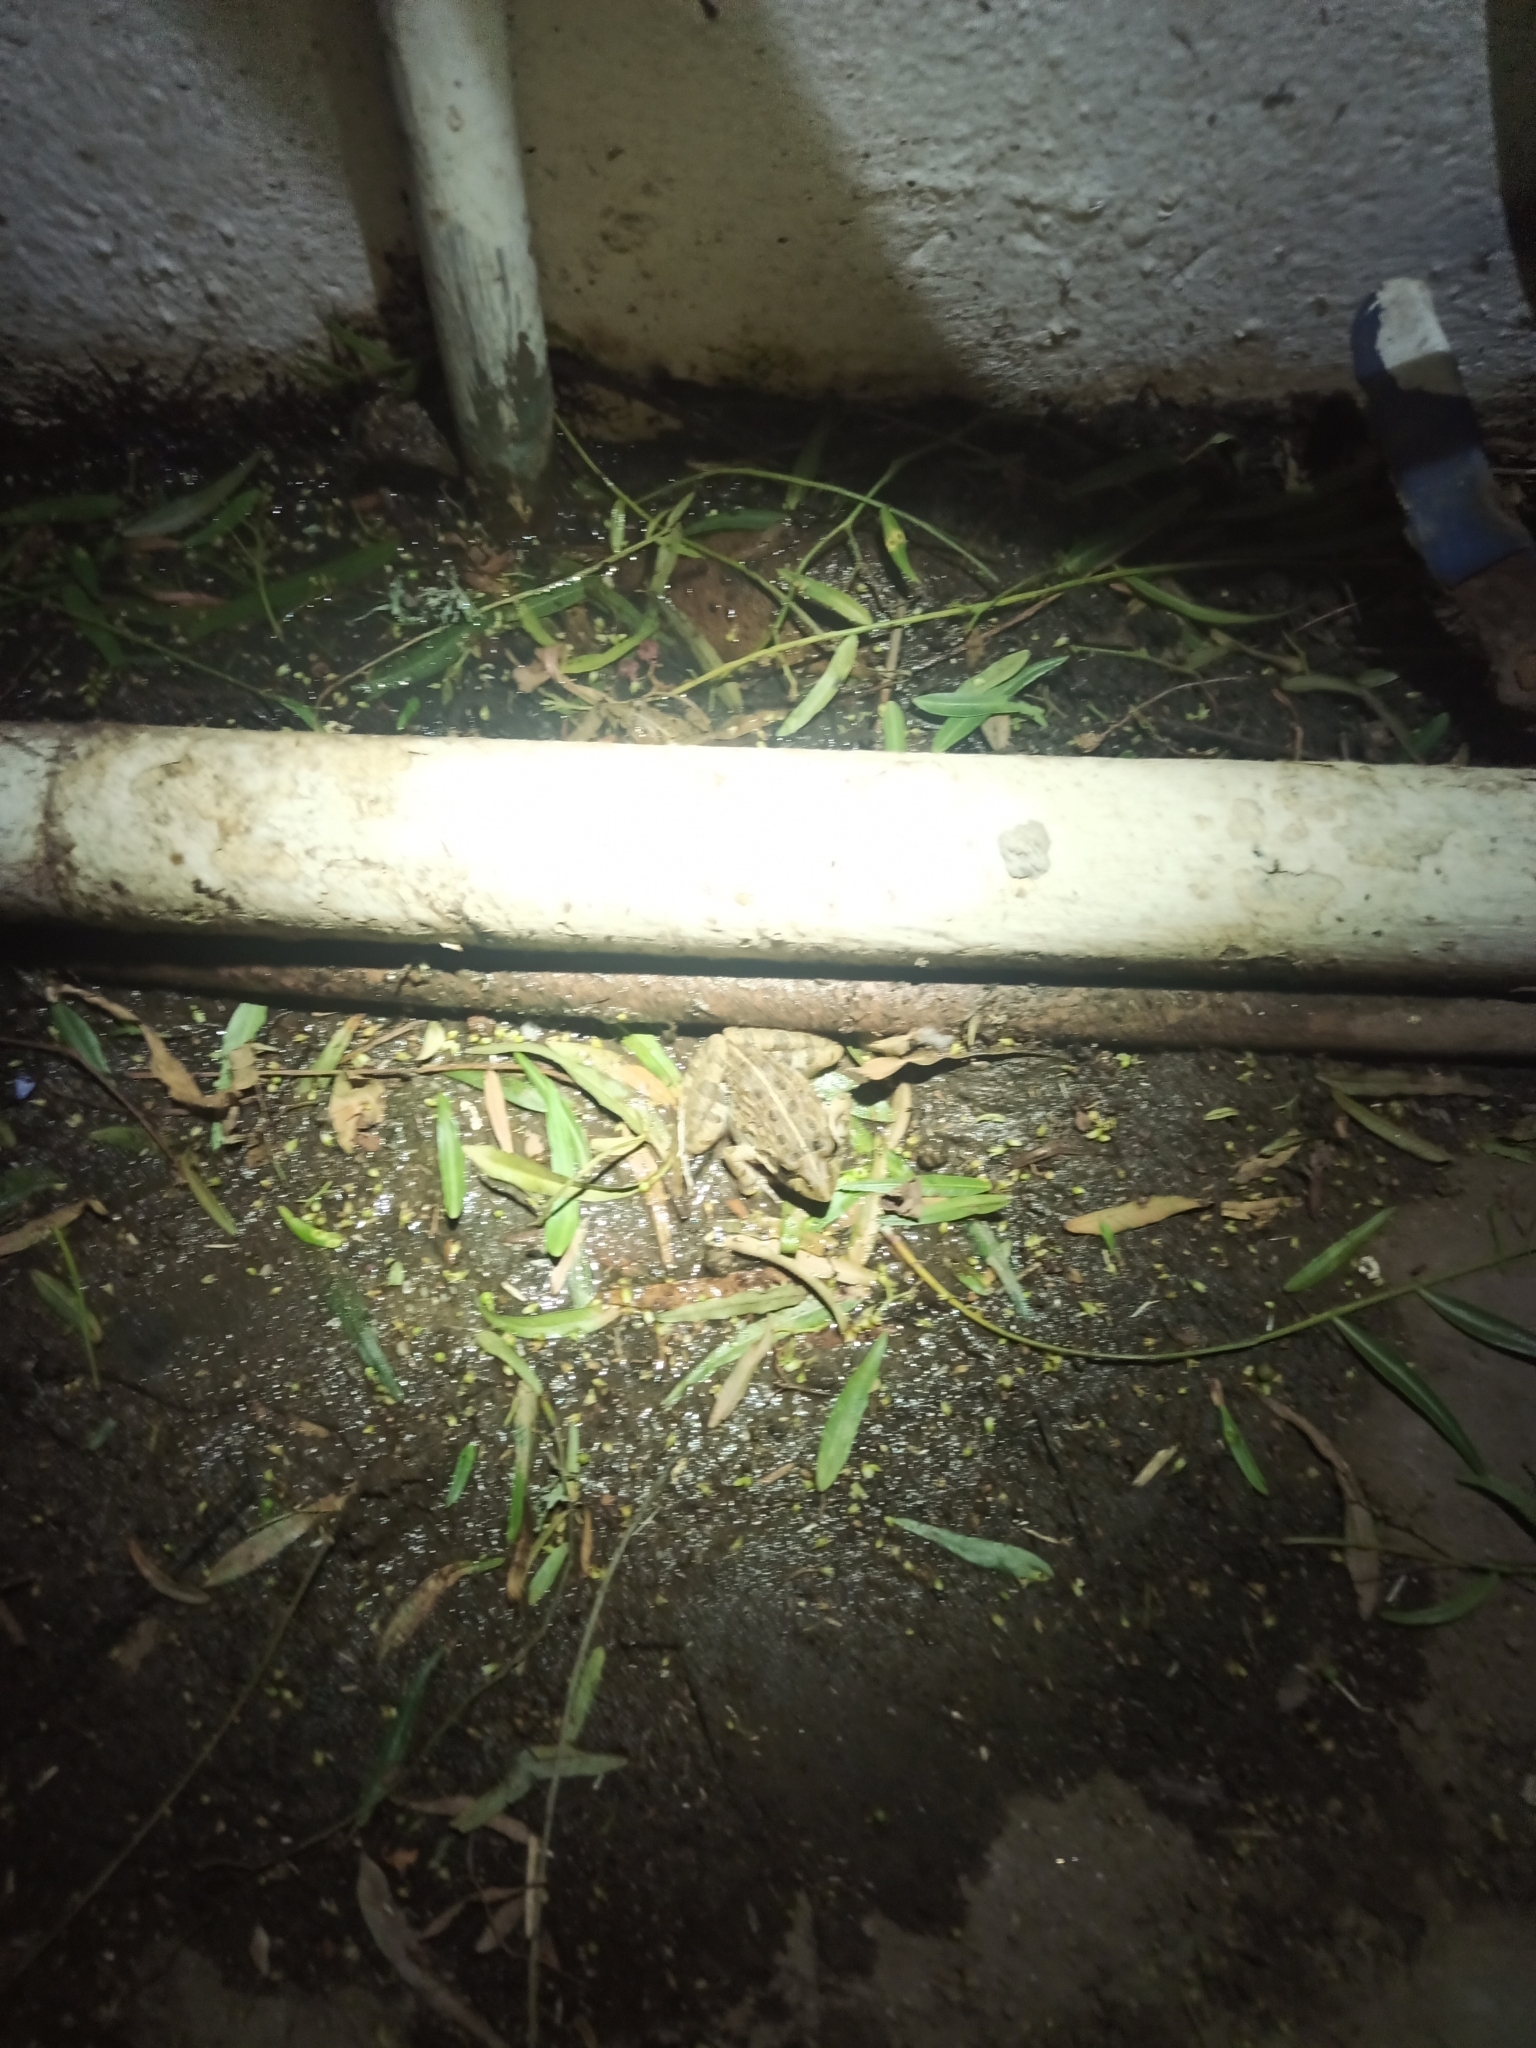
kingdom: Animalia
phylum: Chordata
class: Amphibia
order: Anura
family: Pyxicephalidae
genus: Strongylopus
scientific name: Strongylopus grayii
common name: Gray's stream frog
